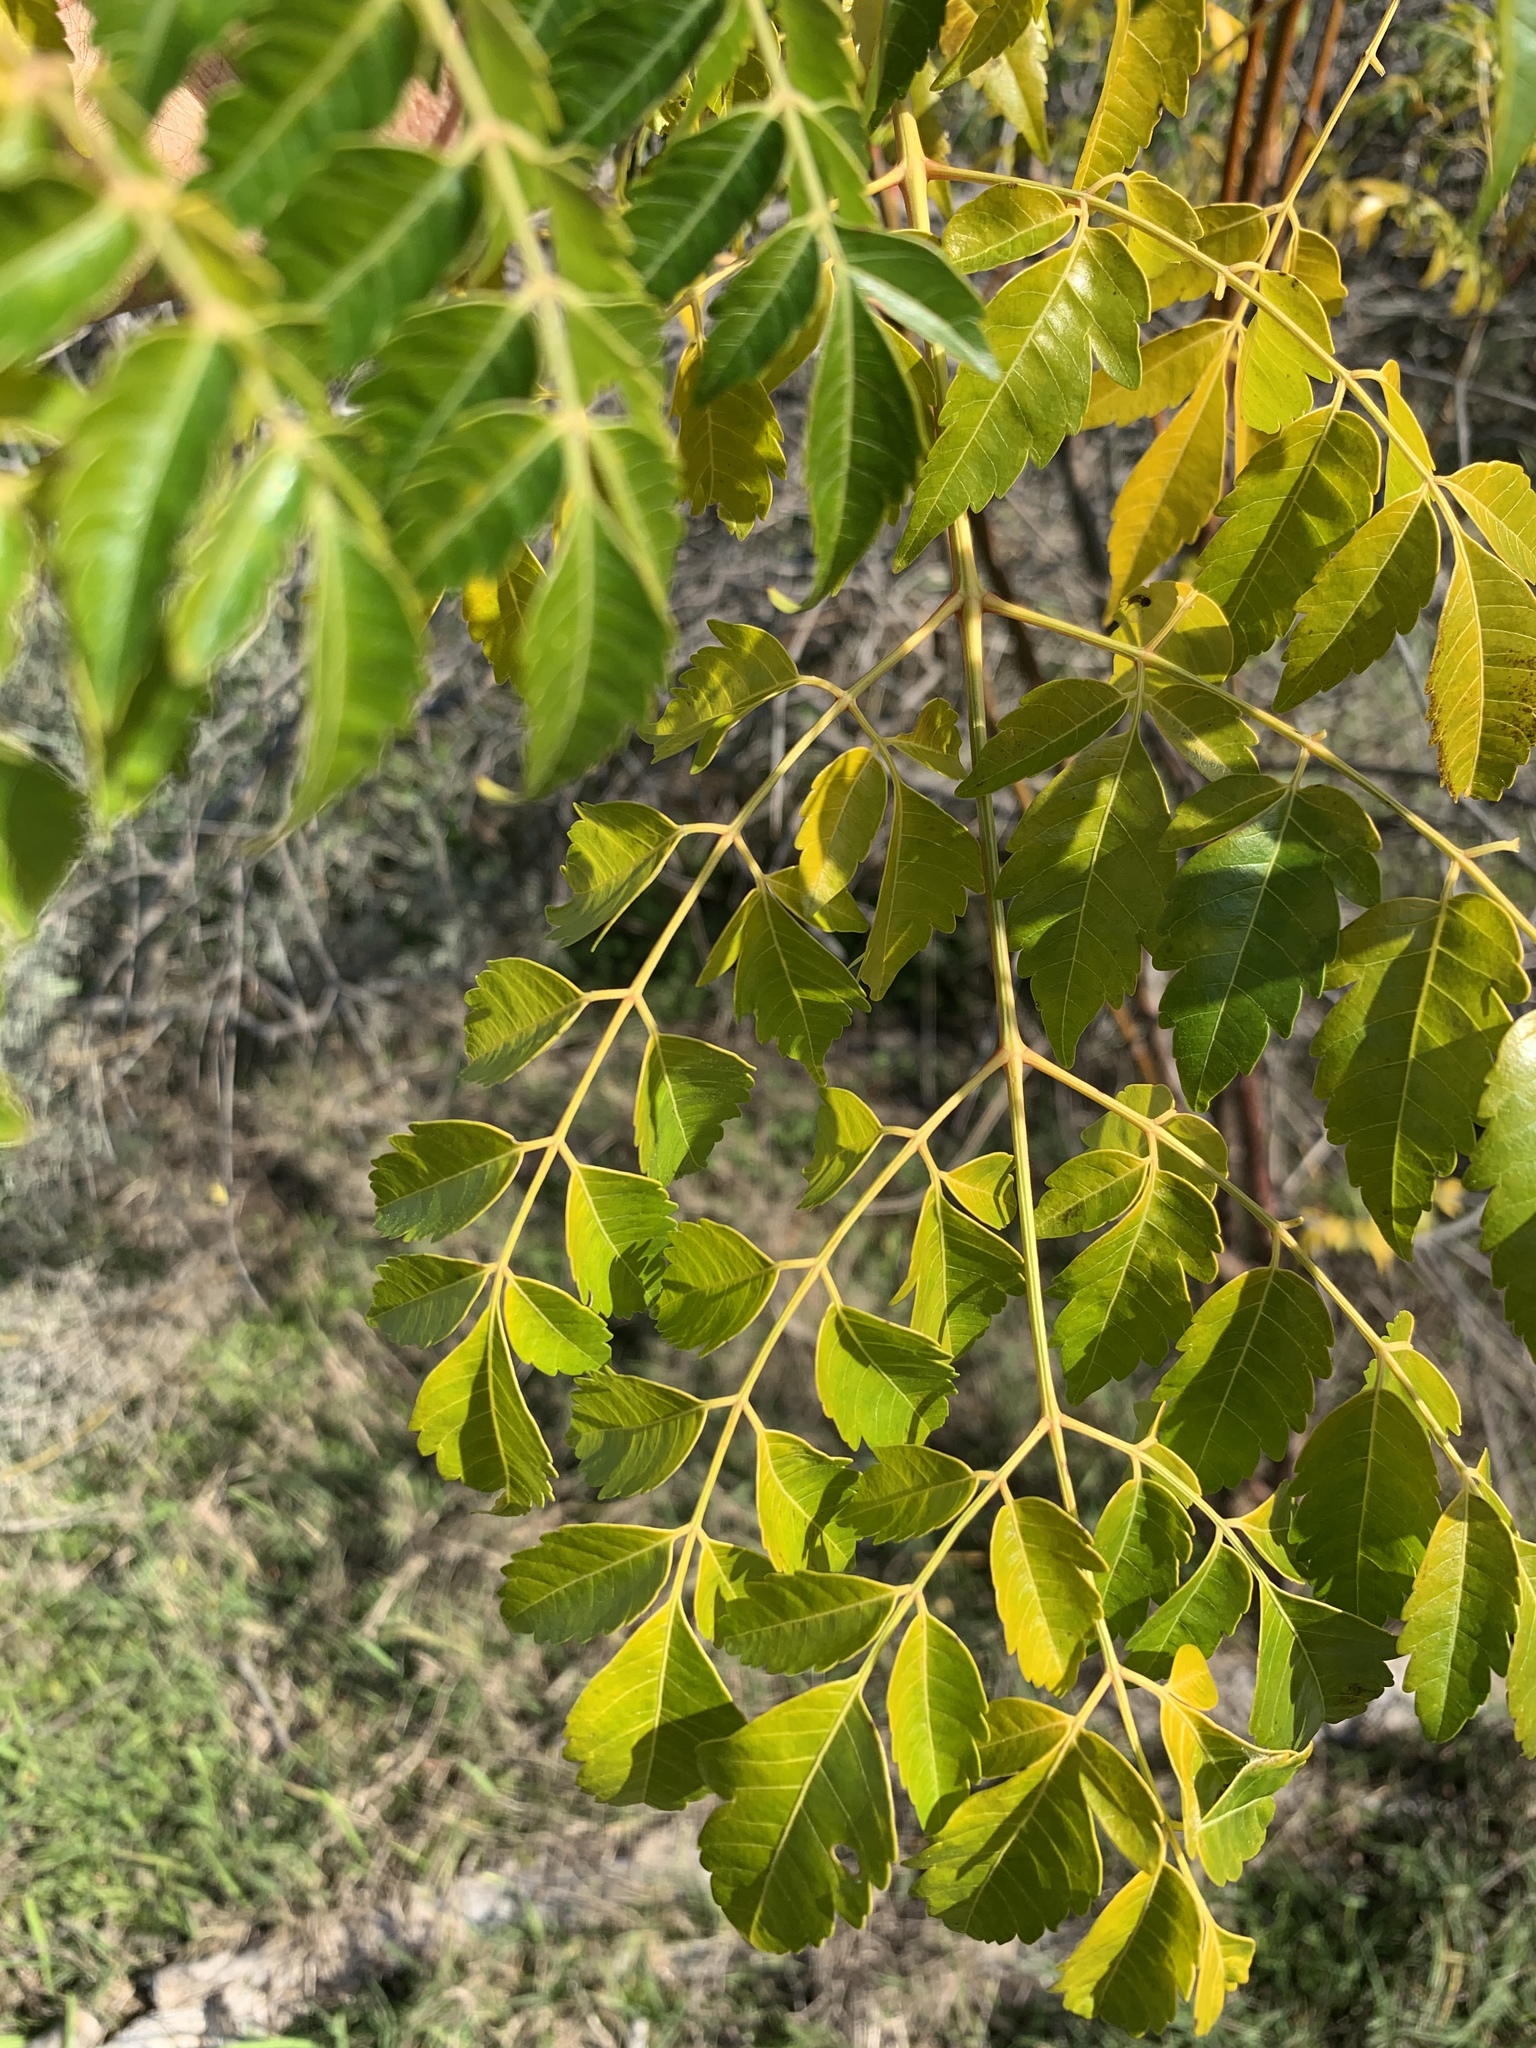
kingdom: Plantae
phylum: Tracheophyta
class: Magnoliopsida
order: Sapindales
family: Meliaceae
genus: Melia
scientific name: Melia azedarach
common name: Chinaberrytree
